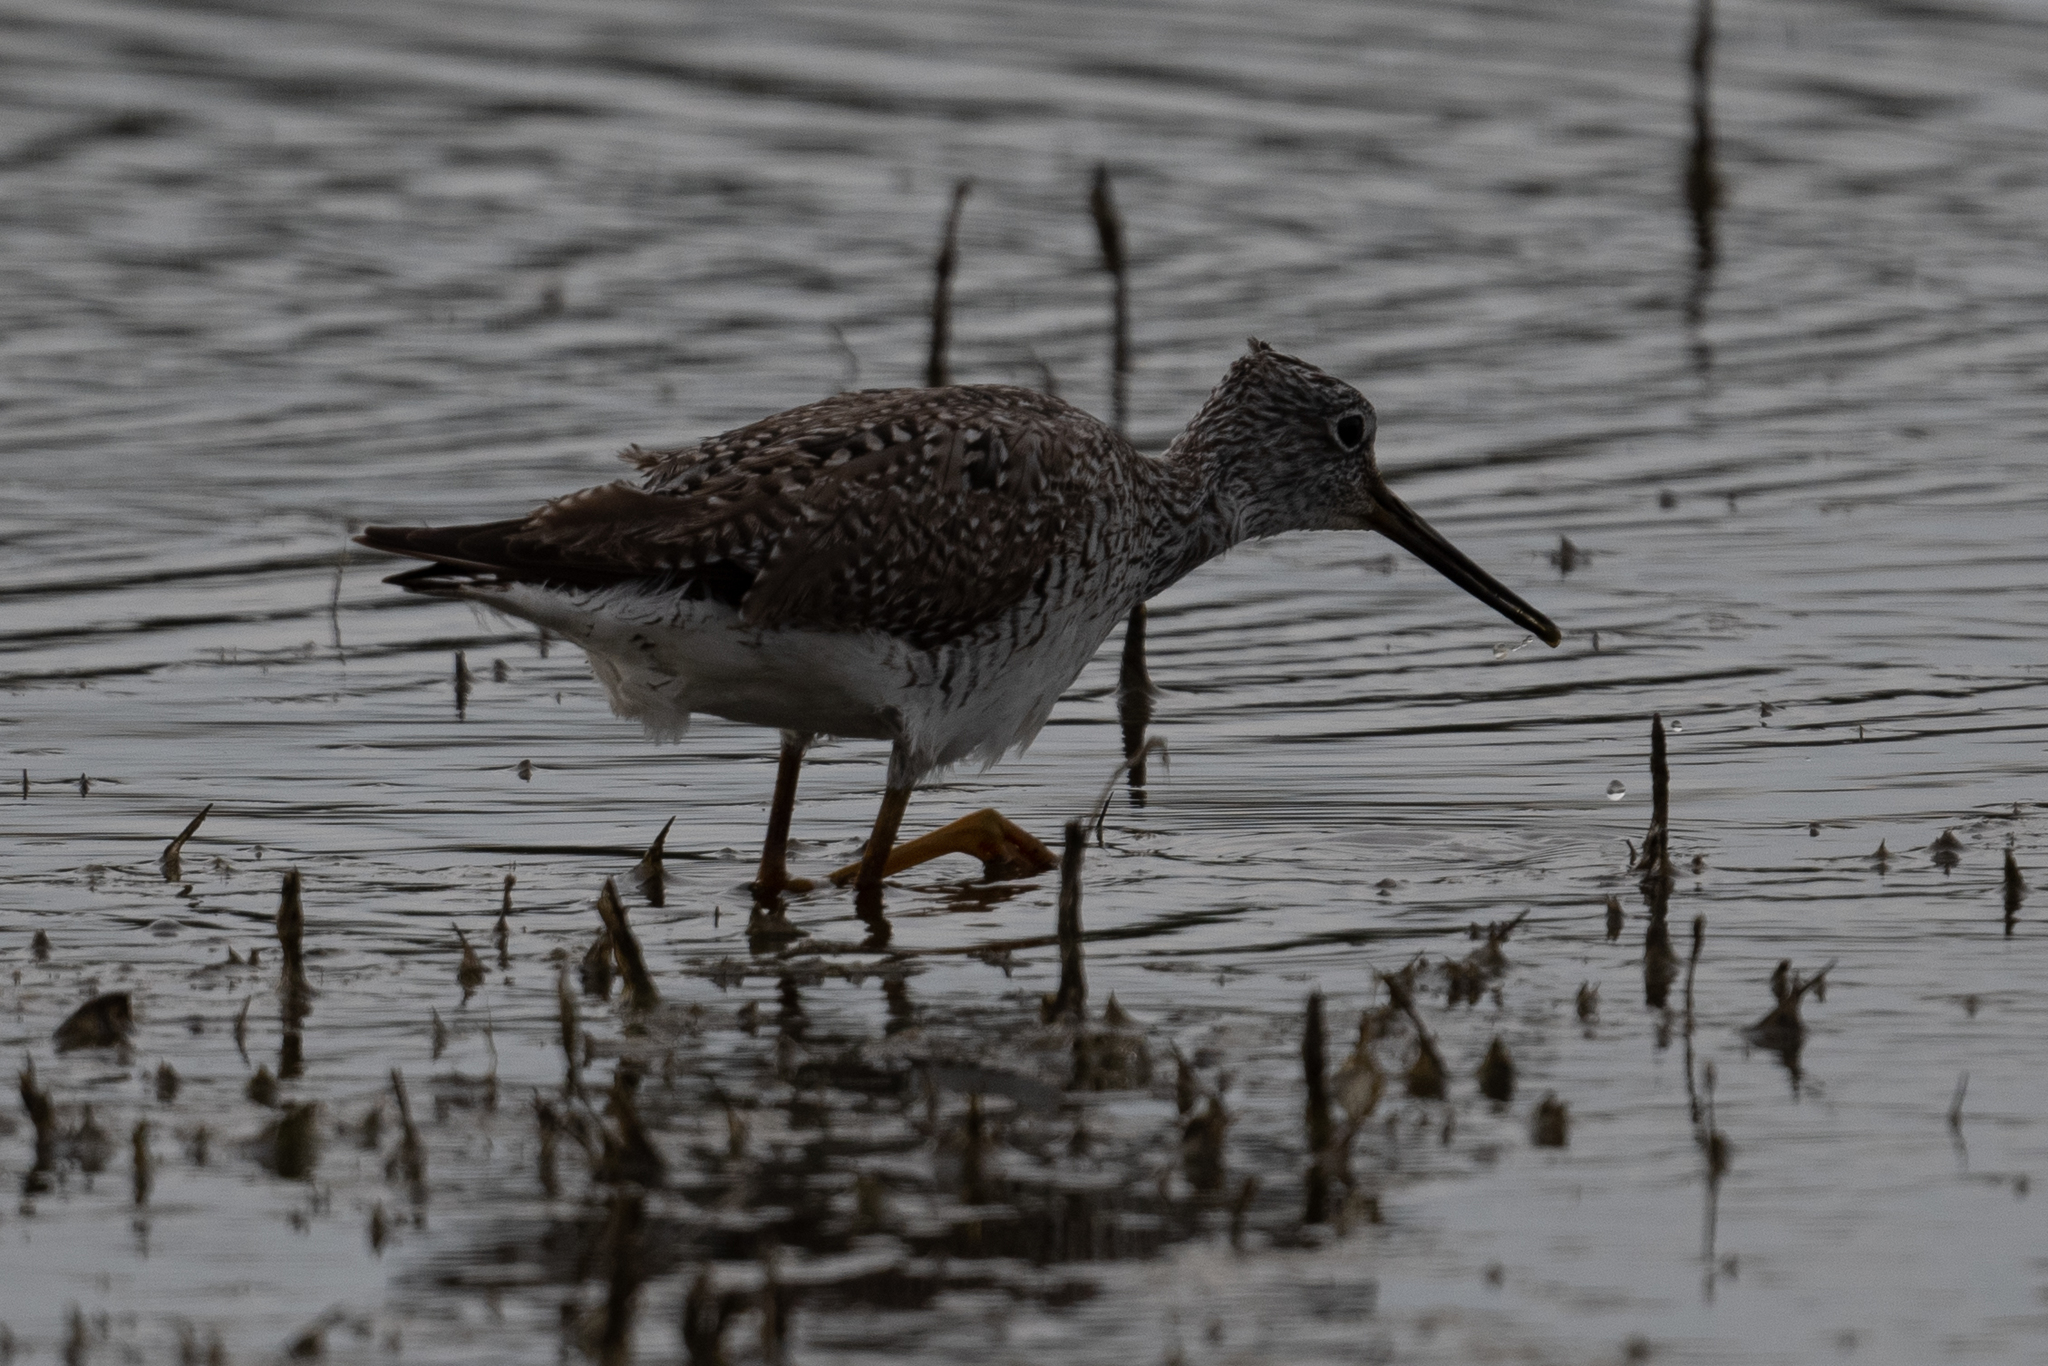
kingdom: Animalia
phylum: Chordata
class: Aves
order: Charadriiformes
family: Scolopacidae
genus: Tringa
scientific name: Tringa melanoleuca
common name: Greater yellowlegs
